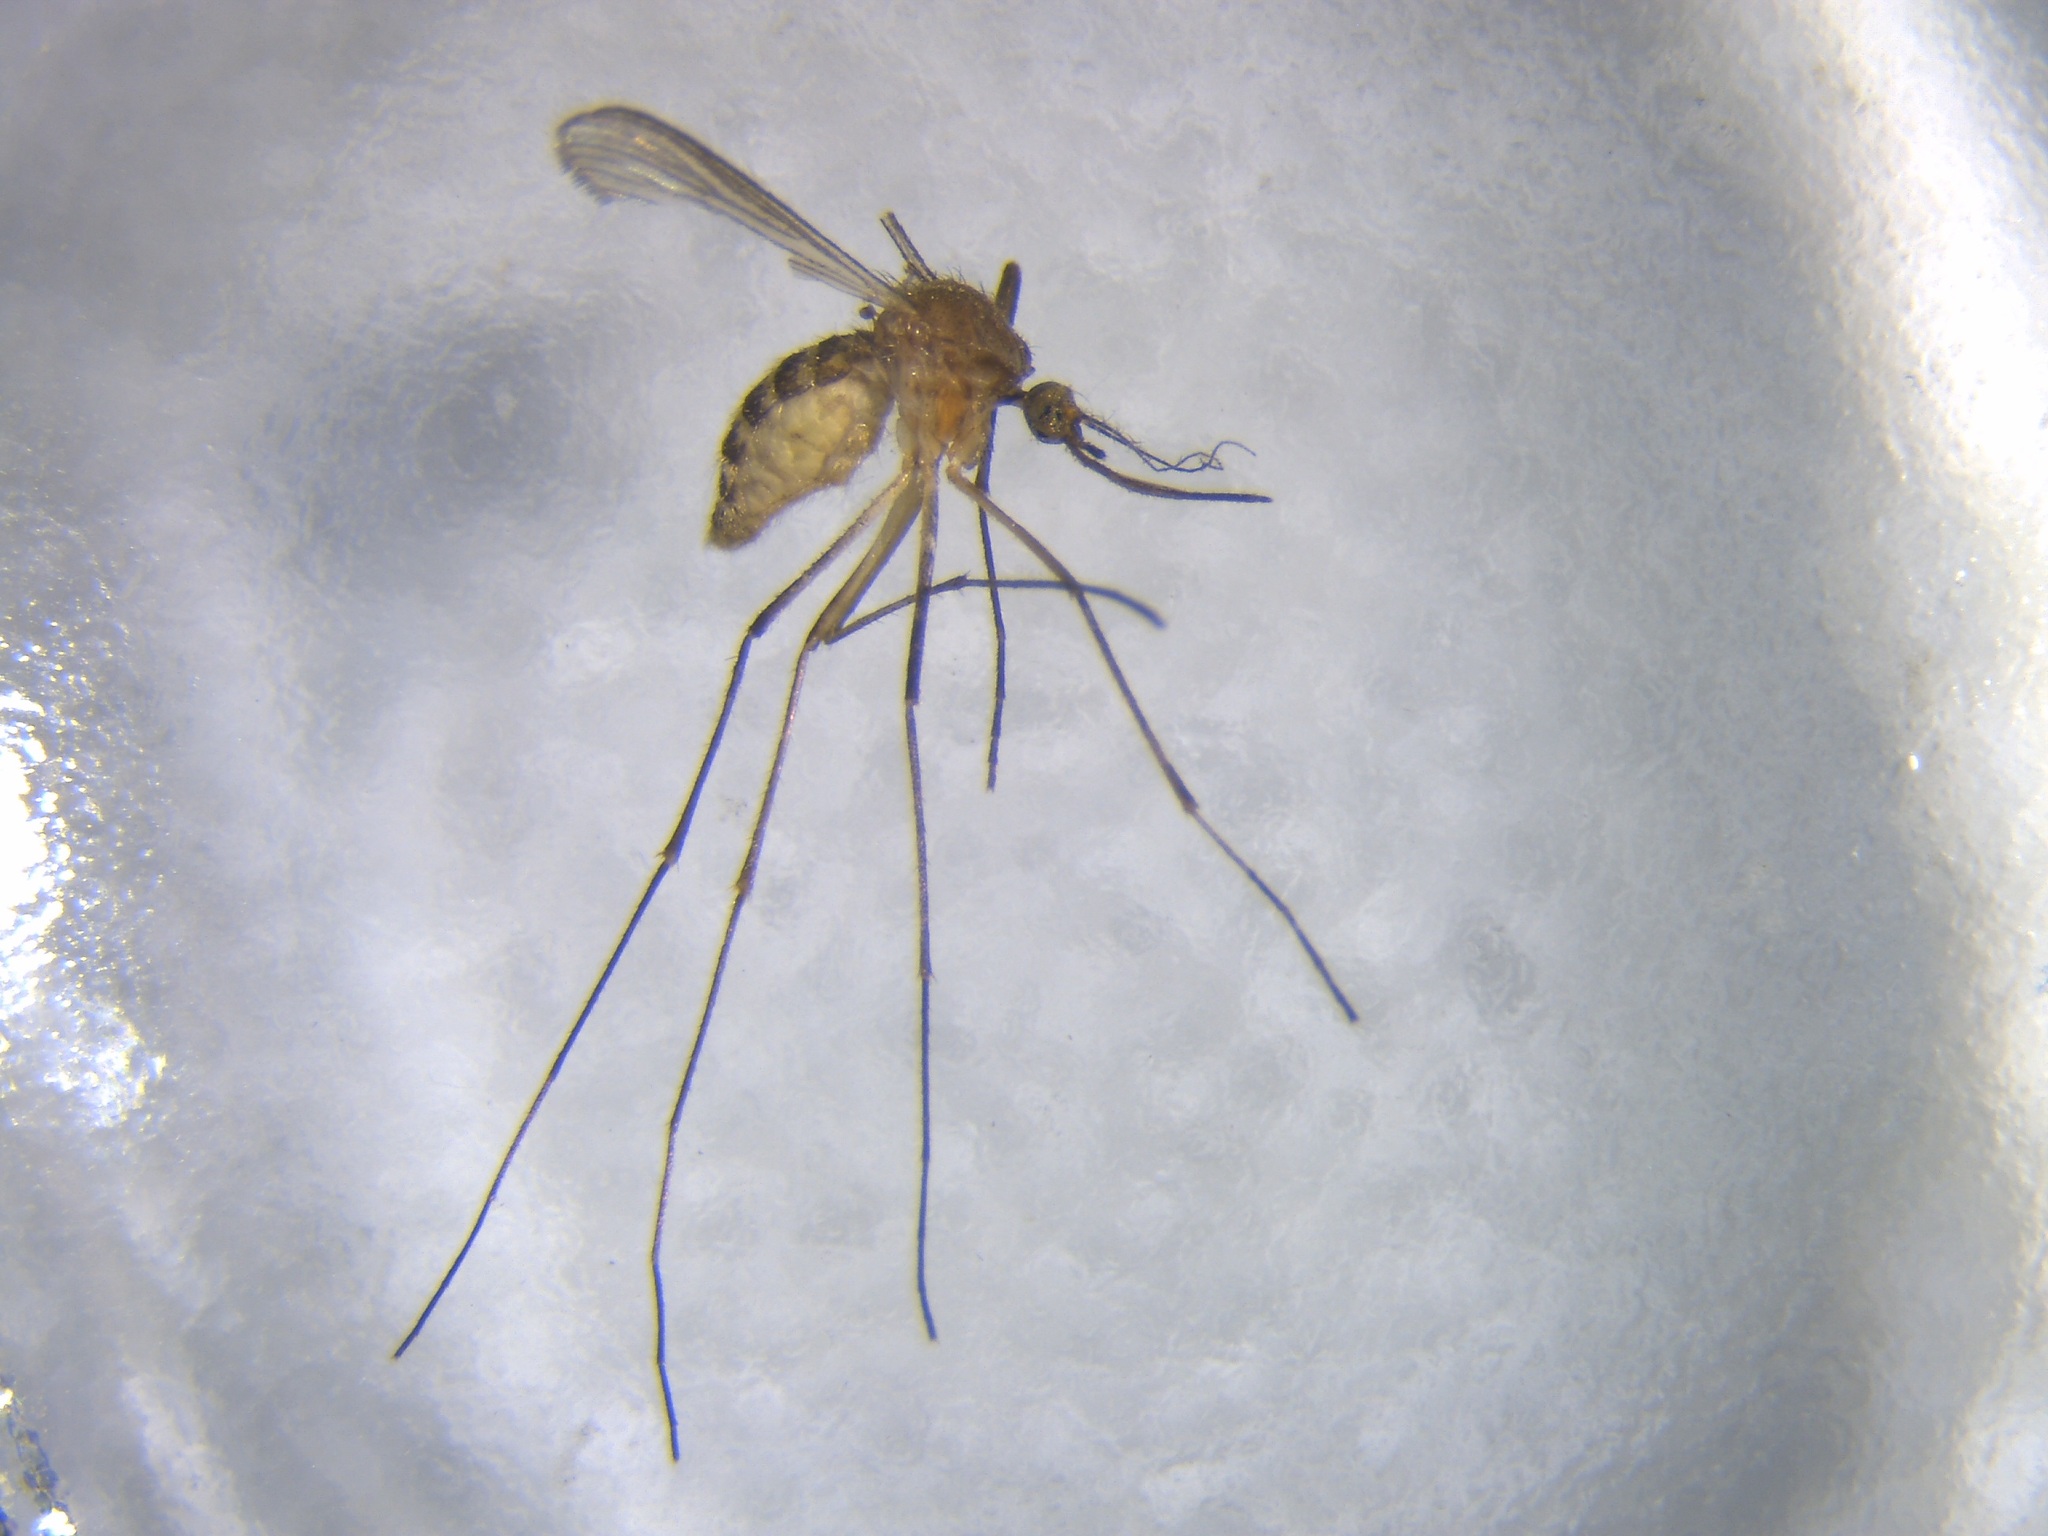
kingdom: Animalia
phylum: Arthropoda
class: Insecta
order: Diptera
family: Culicidae
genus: Culex
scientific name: Culex quinquefasciatus
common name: Southern house mosquito
